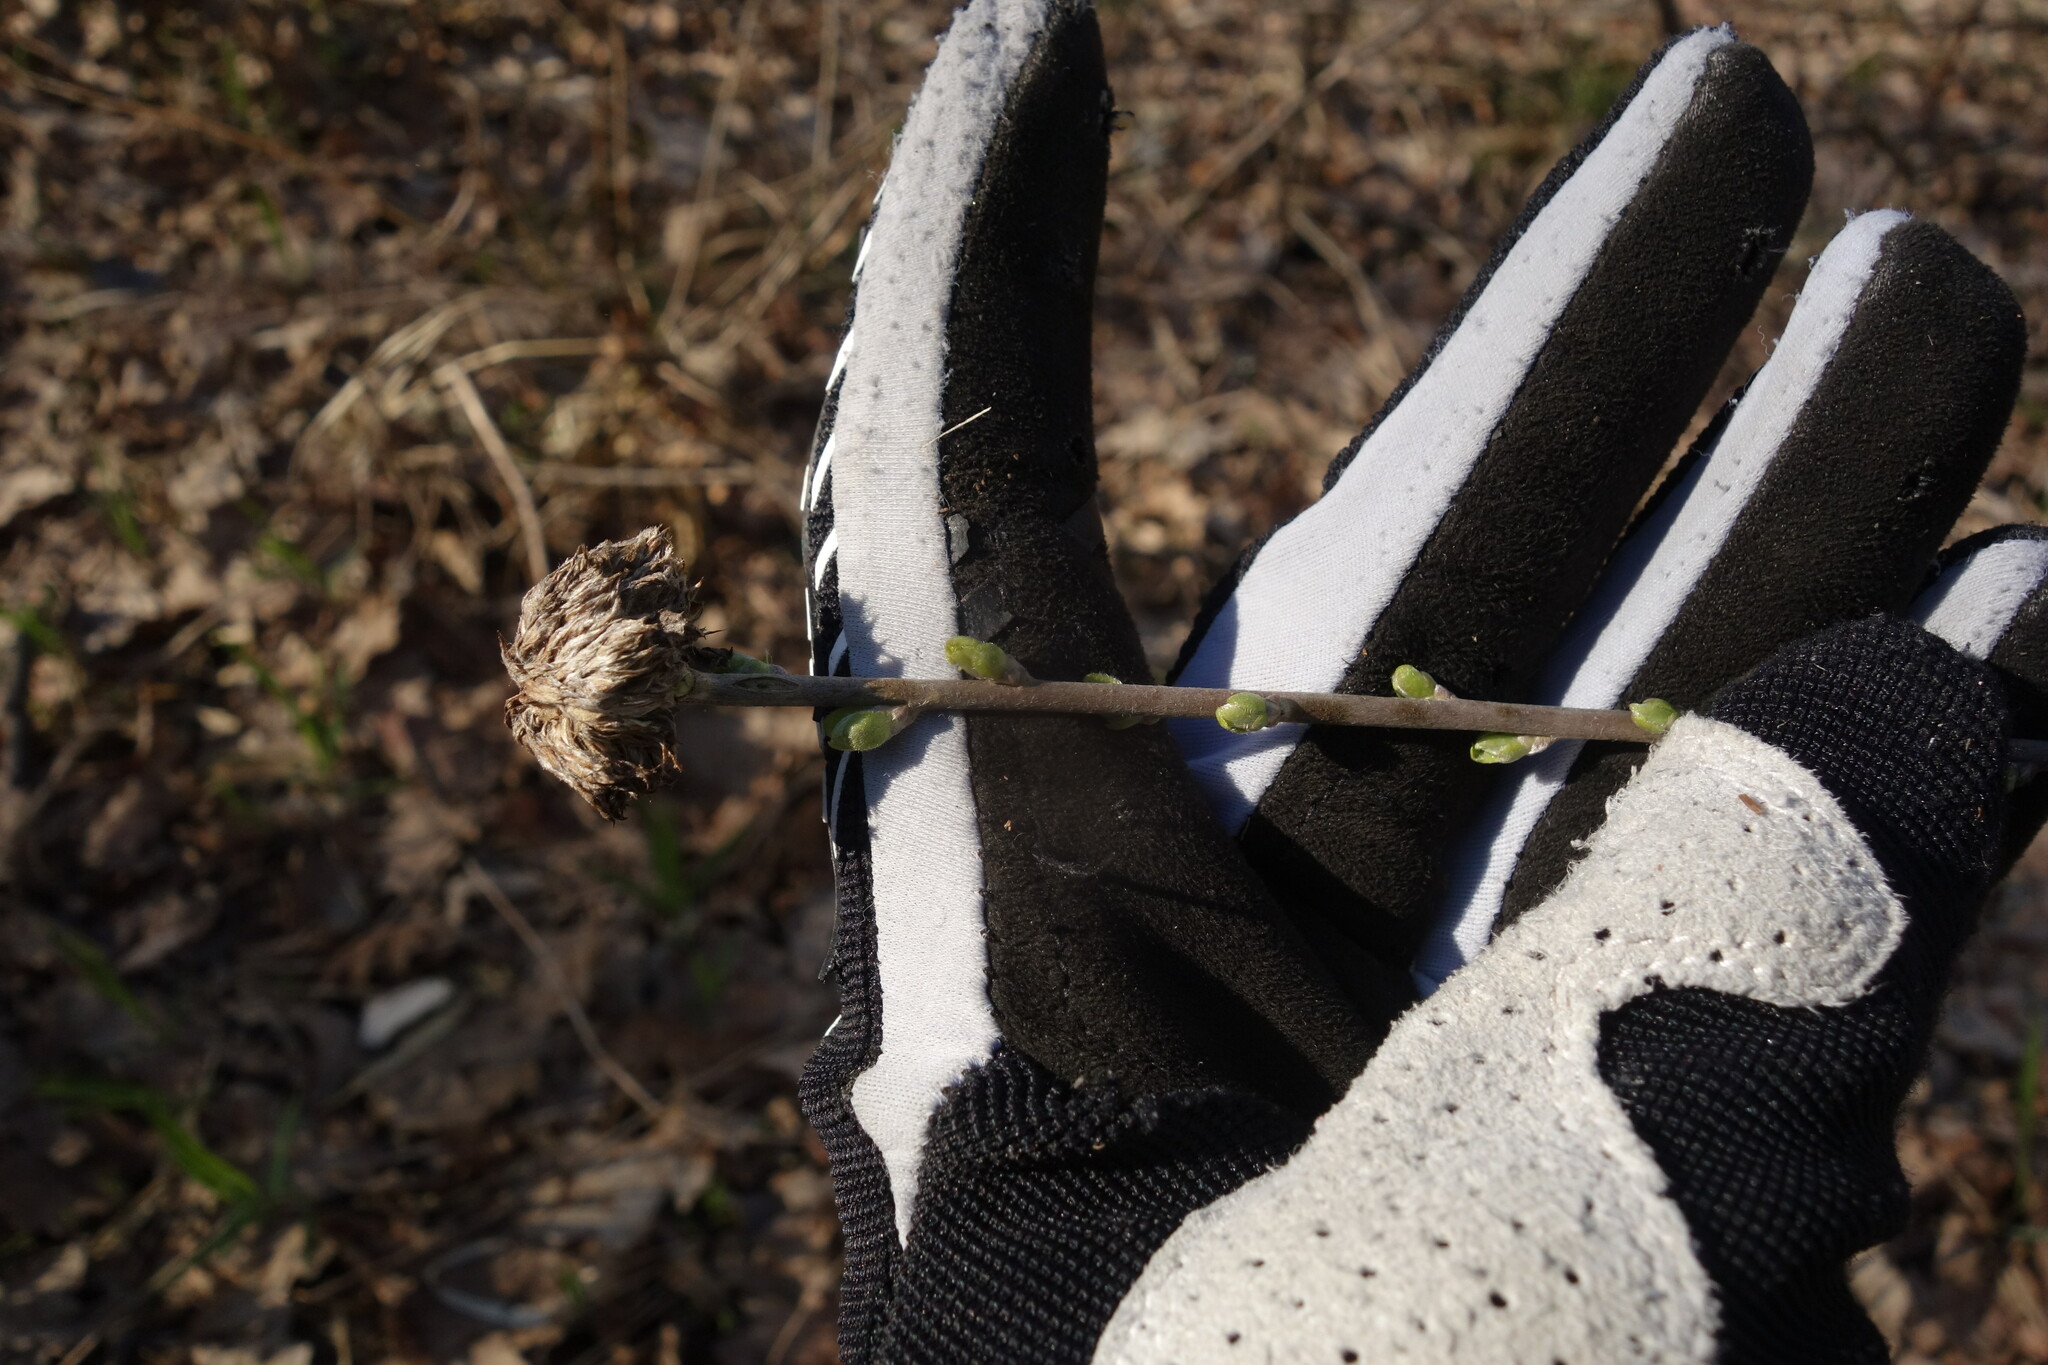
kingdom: Plantae
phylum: Tracheophyta
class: Magnoliopsida
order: Fabales
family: Fabaceae
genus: Chamaecytisus
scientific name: Chamaecytisus ruthenicus
